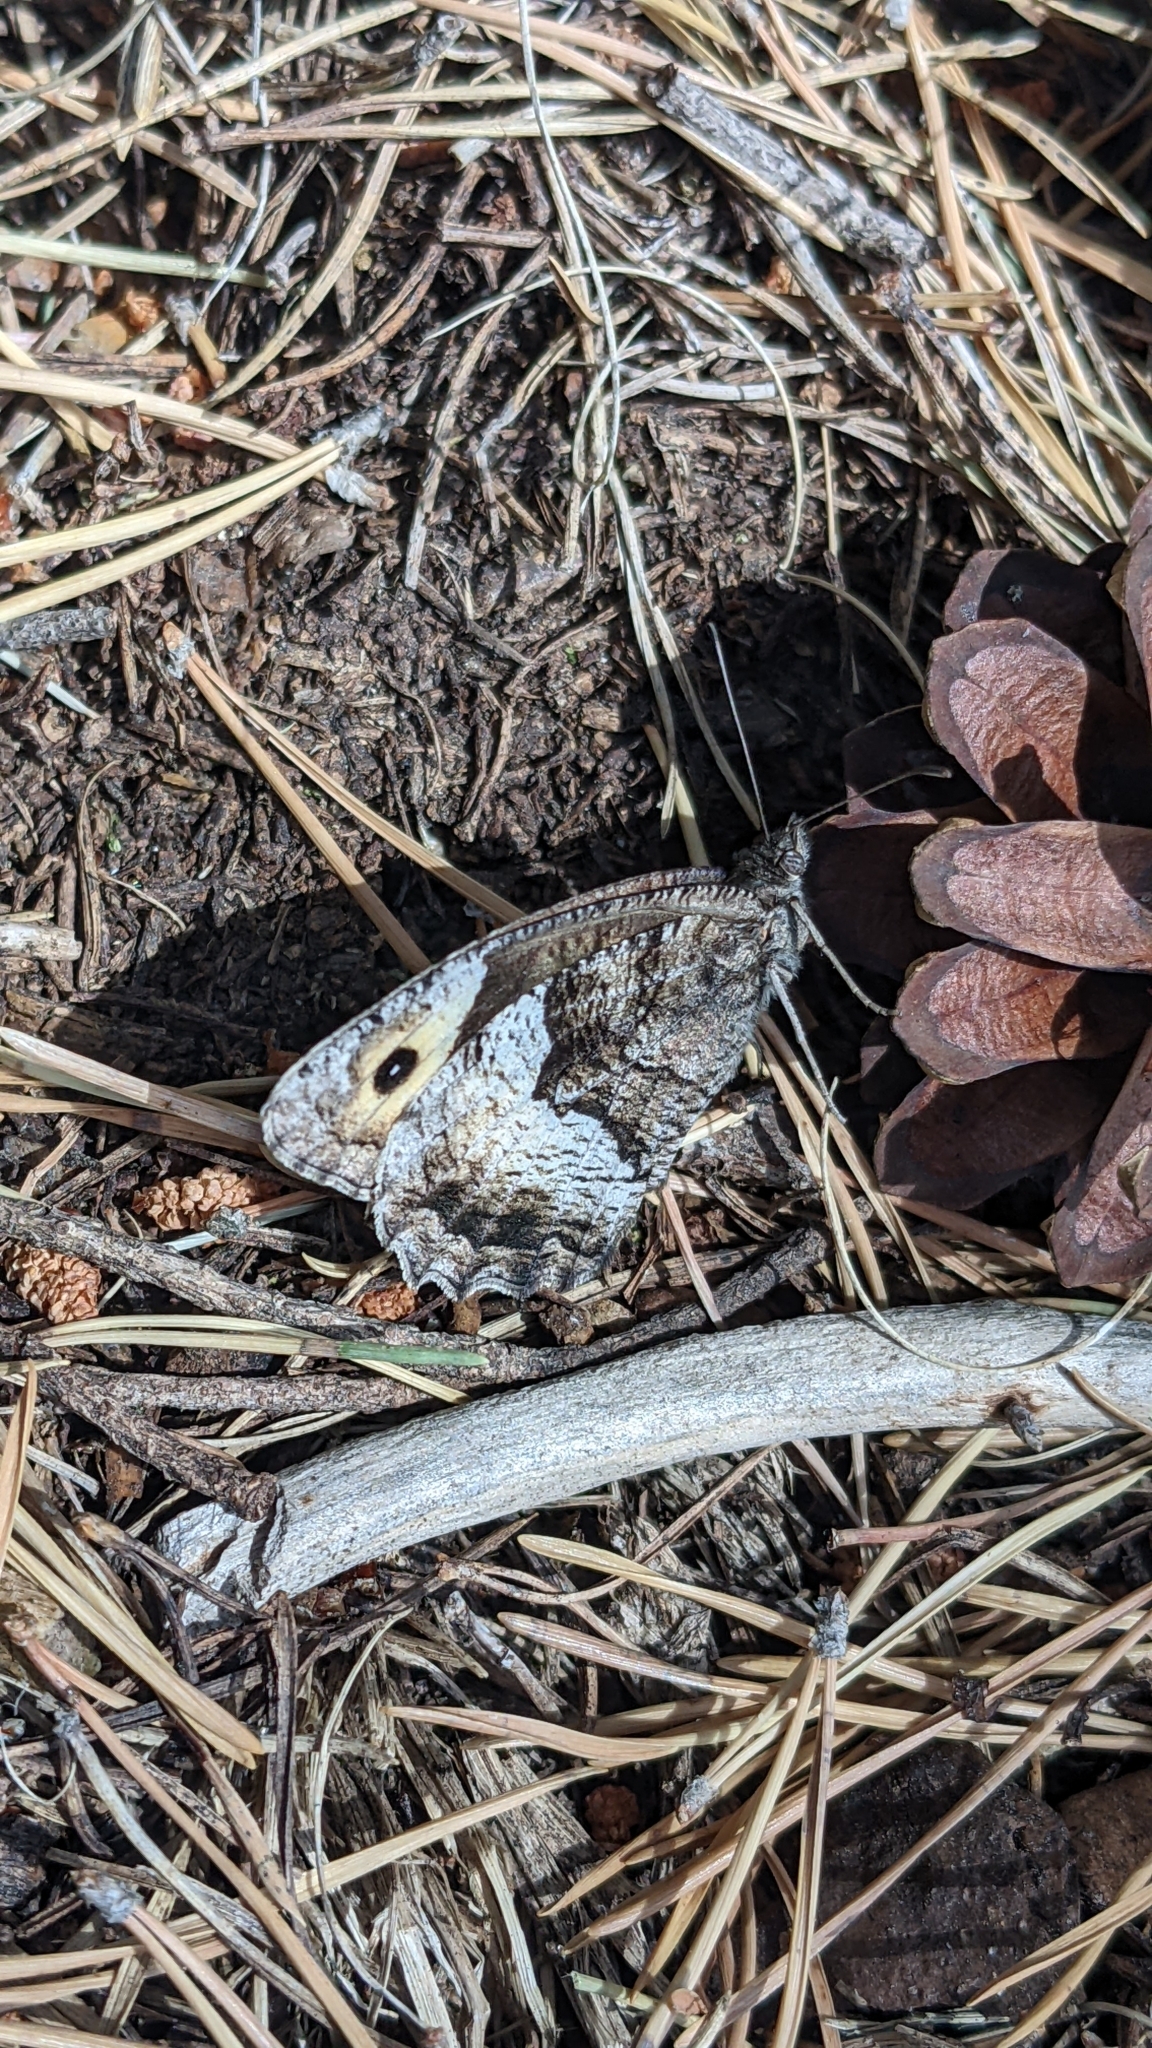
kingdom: Animalia
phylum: Arthropoda
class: Insecta
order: Lepidoptera
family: Nymphalidae
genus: Hipparchia
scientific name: Hipparchia hermione
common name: Rock grayling
